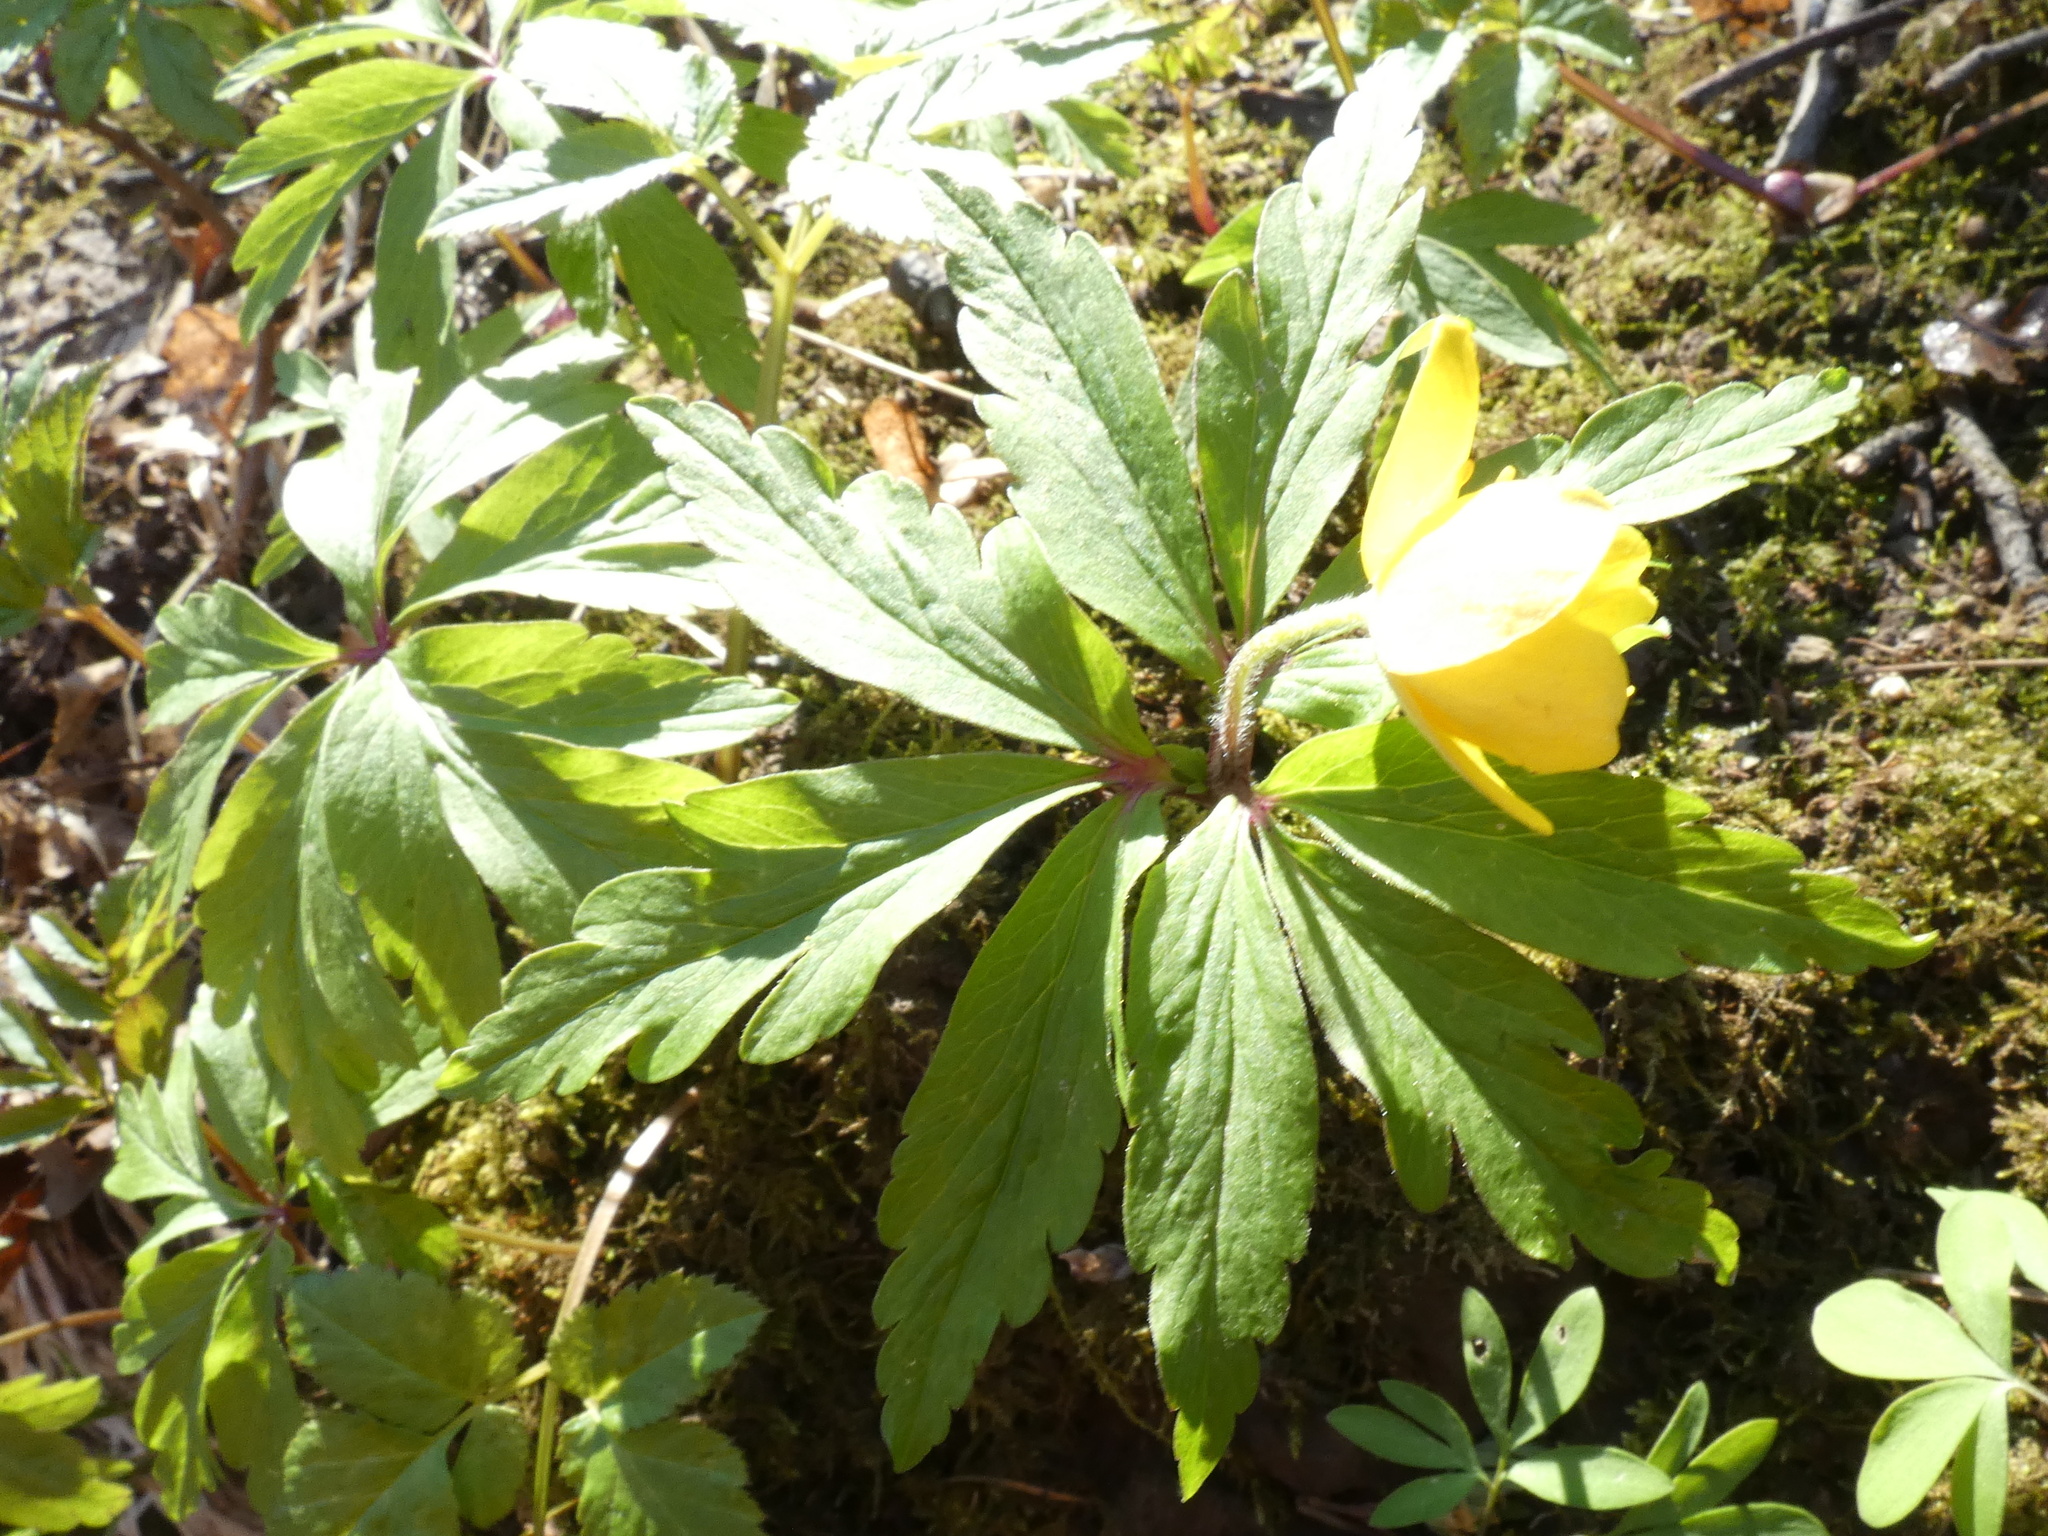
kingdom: Plantae
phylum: Tracheophyta
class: Magnoliopsida
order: Ranunculales
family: Ranunculaceae
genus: Anemone
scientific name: Anemone ranunculoides
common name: Yellow anemone
